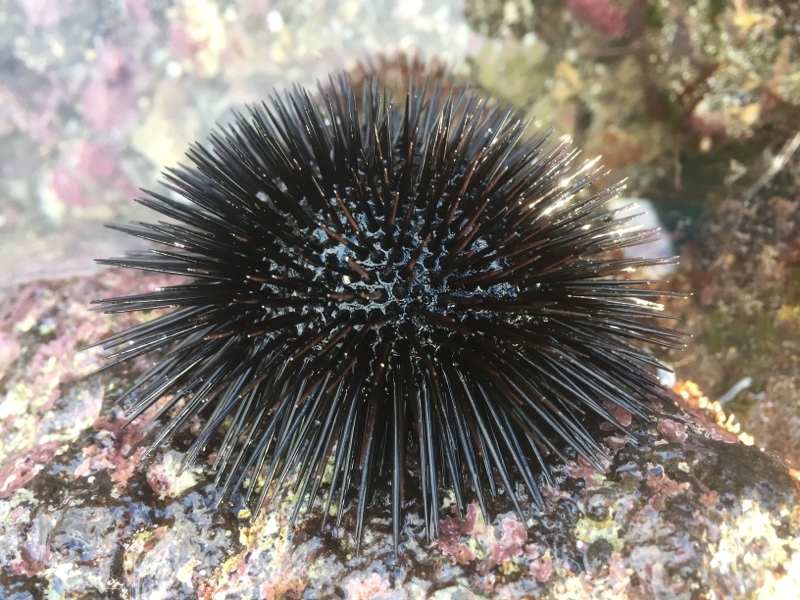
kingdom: Animalia
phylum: Echinodermata
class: Echinoidea
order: Arbacioida
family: Arbaciidae
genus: Arbacia
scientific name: Arbacia lixula
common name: Black sea urchin
